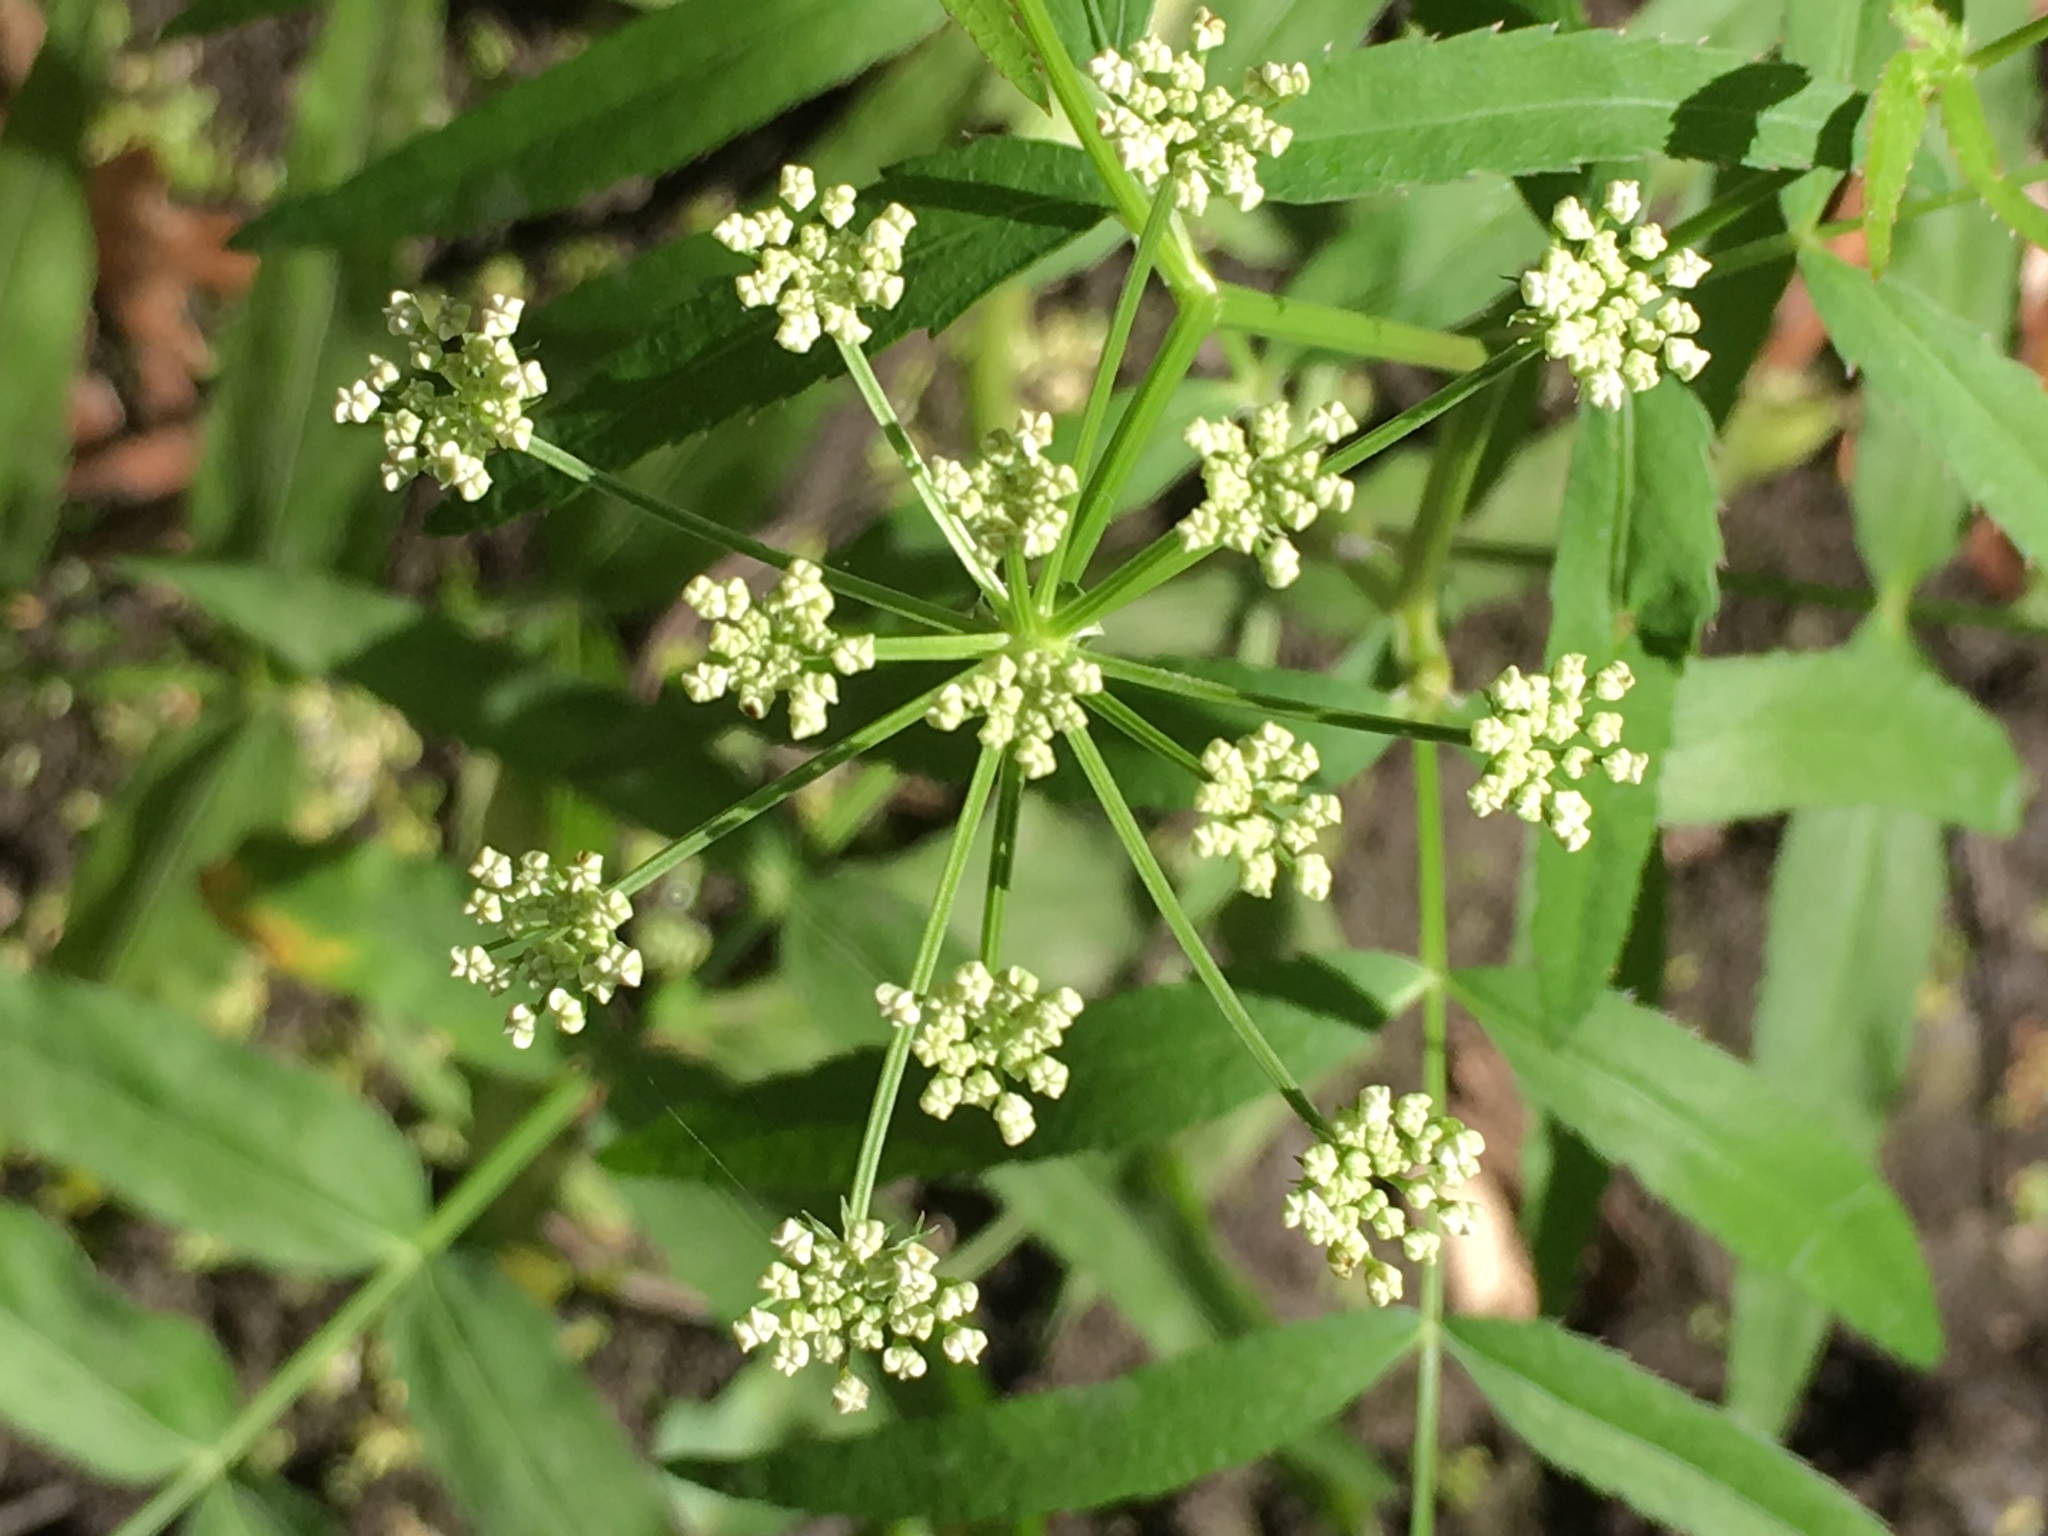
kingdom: Plantae
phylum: Tracheophyta
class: Magnoliopsida
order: Apiales
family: Apiaceae
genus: Sium
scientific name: Sium suave
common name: Hemlock water-parsnip
